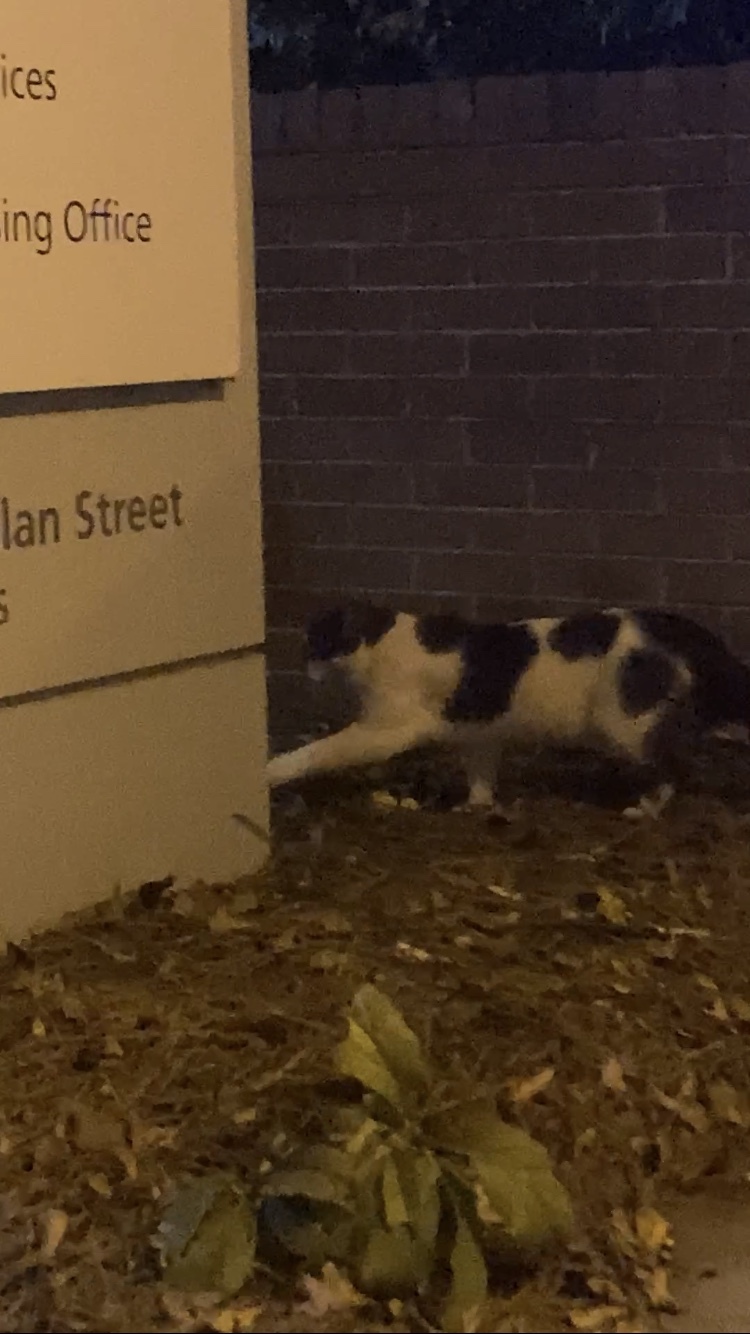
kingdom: Animalia
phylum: Chordata
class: Mammalia
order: Carnivora
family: Felidae
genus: Felis
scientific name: Felis catus
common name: Domestic cat
